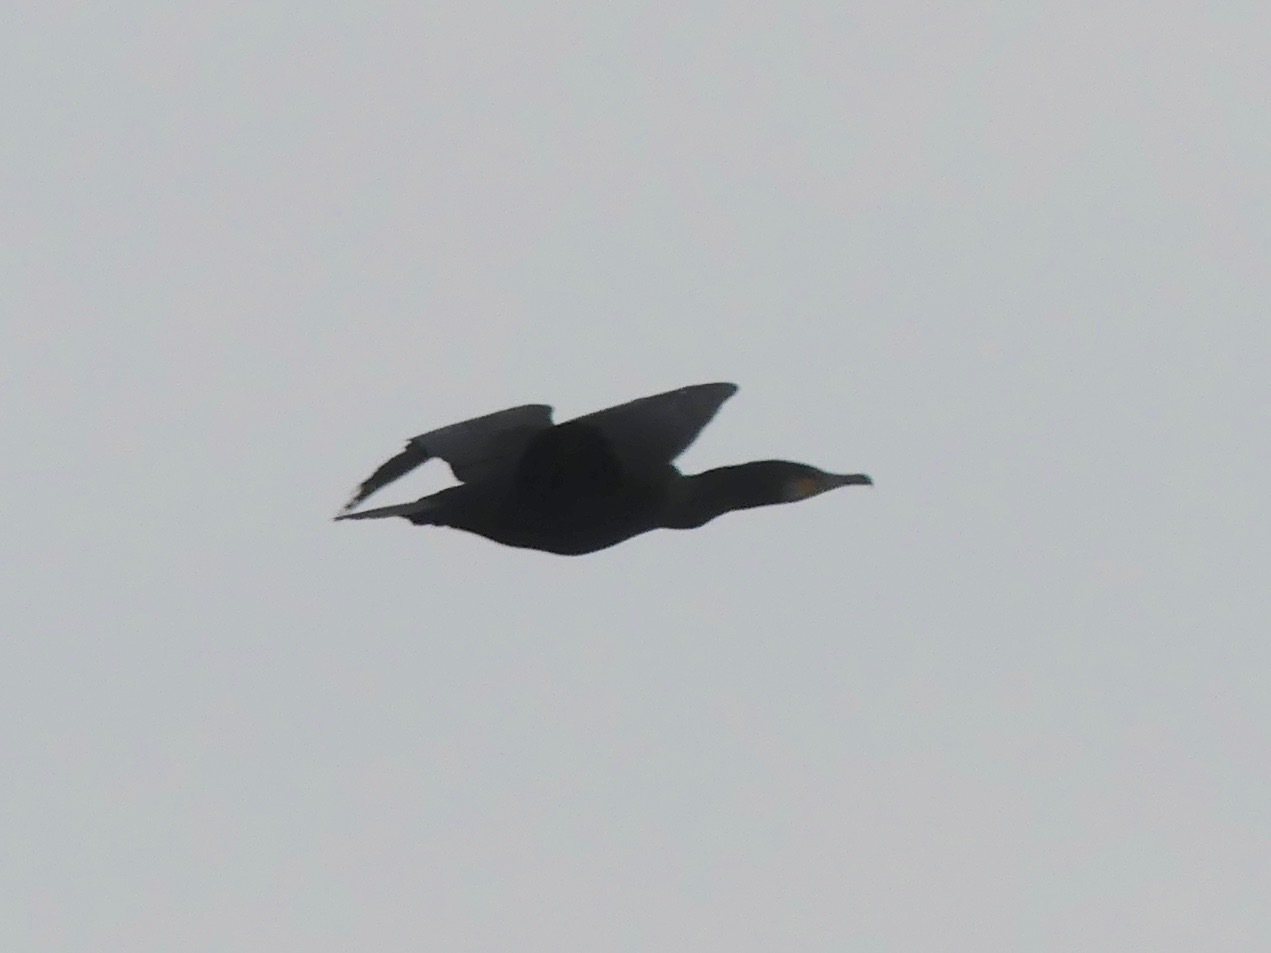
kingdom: Animalia
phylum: Chordata
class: Aves
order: Suliformes
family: Phalacrocoracidae
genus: Phalacrocorax
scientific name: Phalacrocorax carbo
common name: Great cormorant
